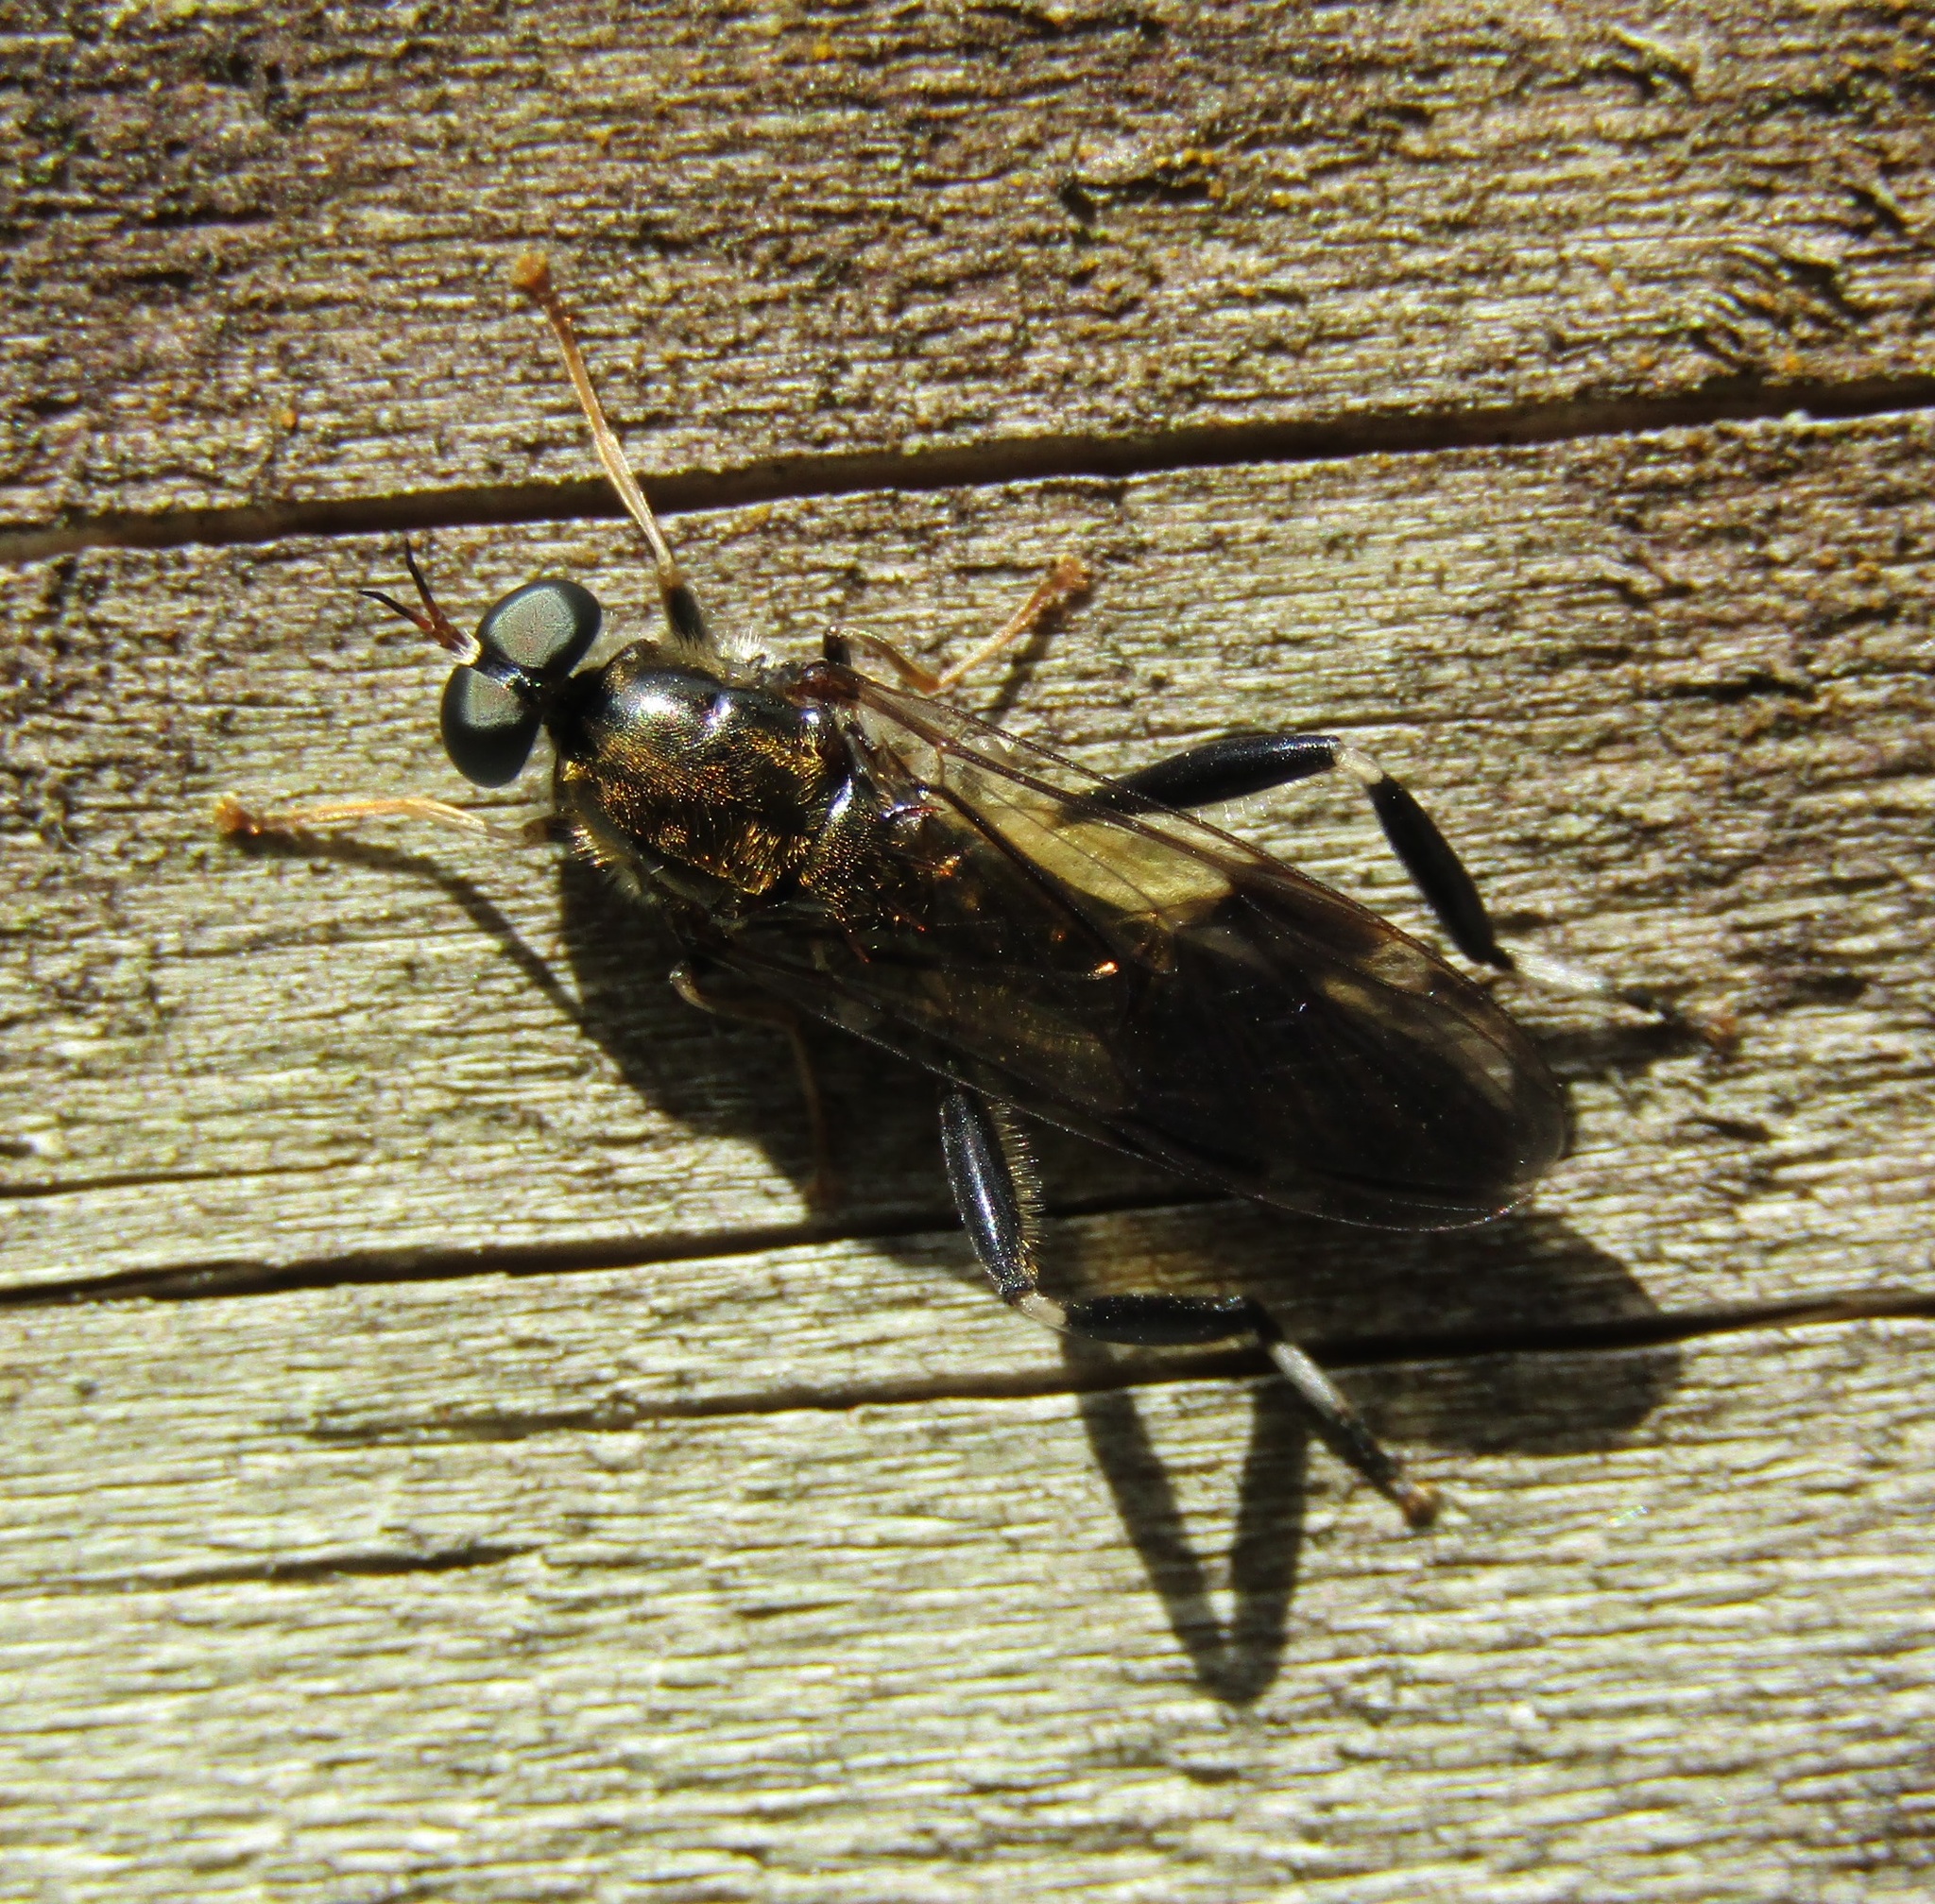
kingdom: Animalia
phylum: Arthropoda
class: Insecta
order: Diptera
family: Stratiomyidae
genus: Exaireta
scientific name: Exaireta spinigera
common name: Blue soldier fly
